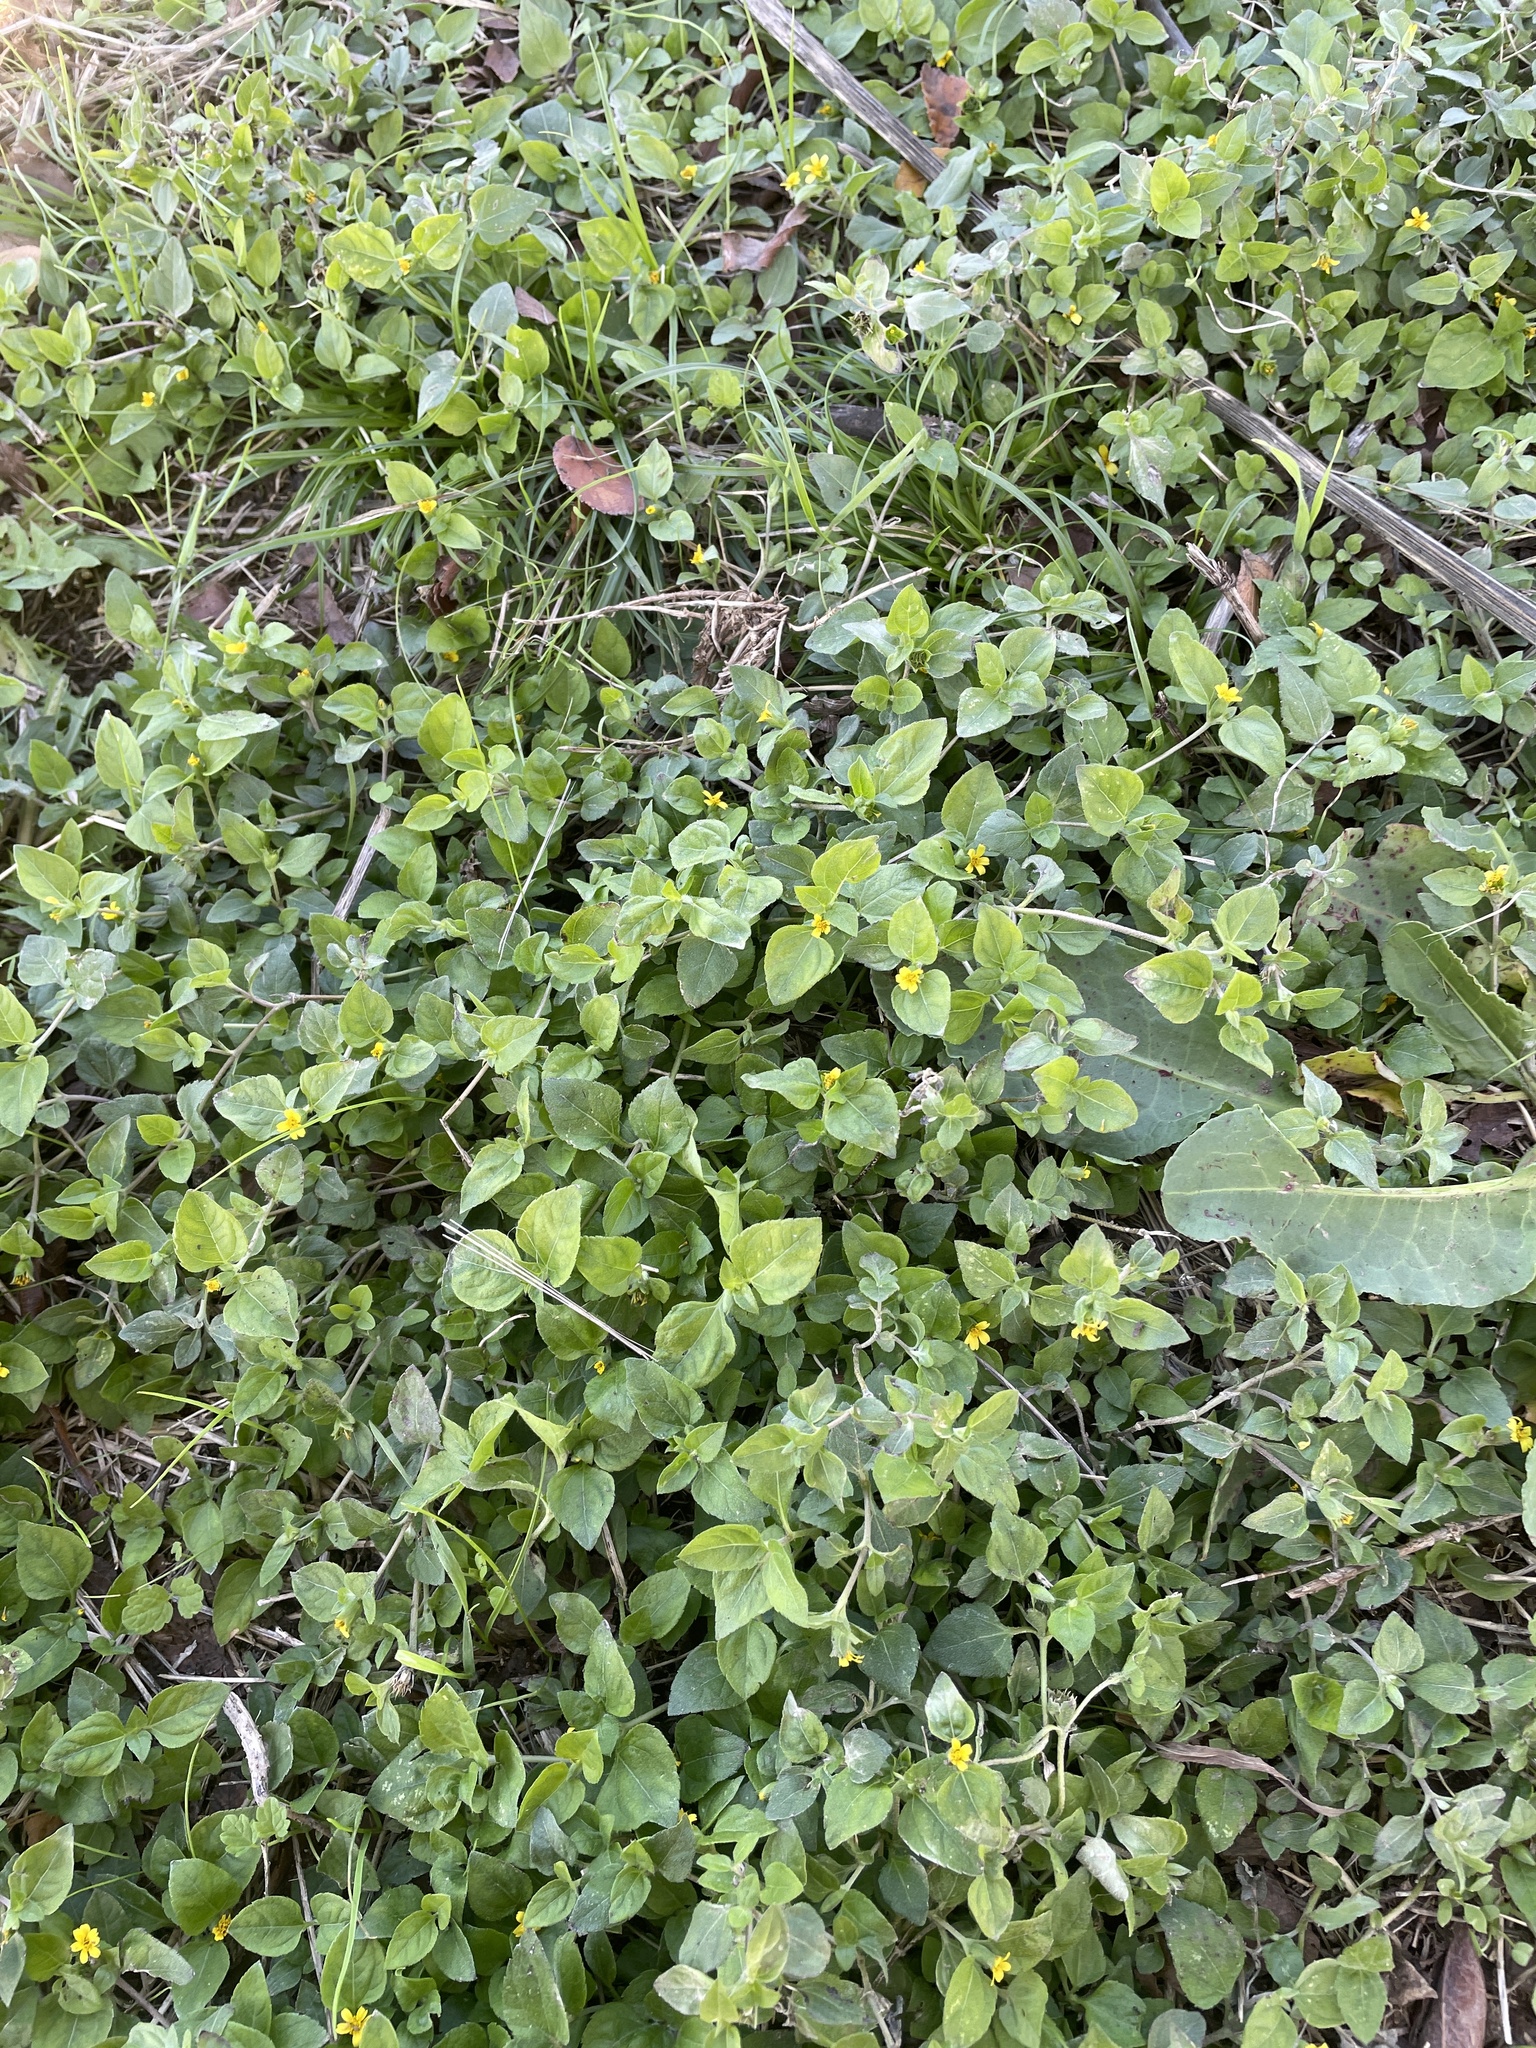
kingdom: Plantae
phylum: Tracheophyta
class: Magnoliopsida
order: Asterales
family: Asteraceae
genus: Calyptocarpus
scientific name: Calyptocarpus vialis
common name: Straggler daisy
